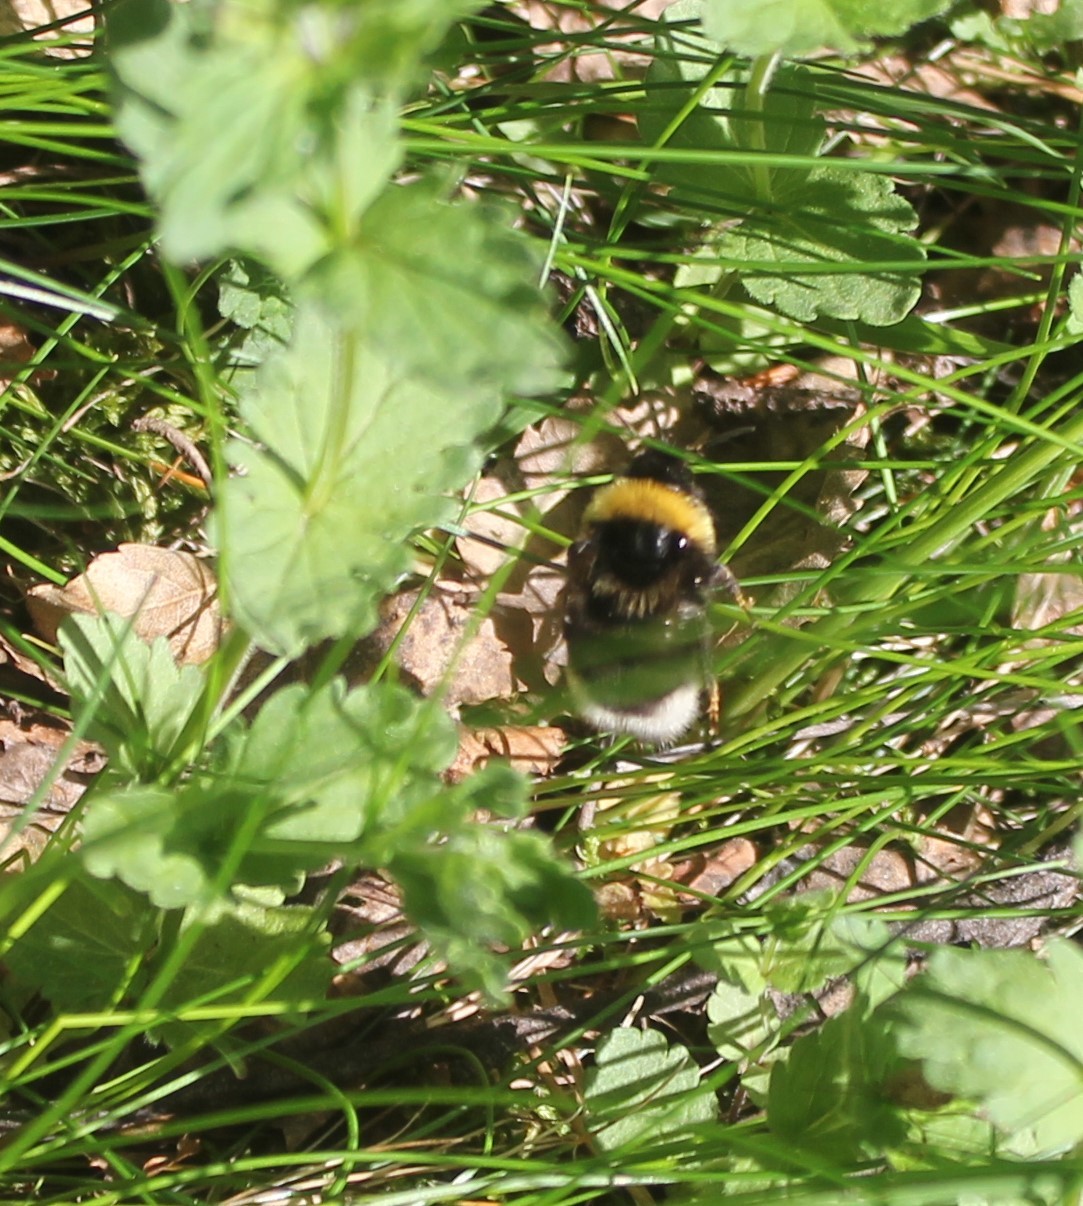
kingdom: Animalia
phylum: Arthropoda
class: Insecta
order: Hymenoptera
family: Apidae
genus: Bombus
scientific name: Bombus
